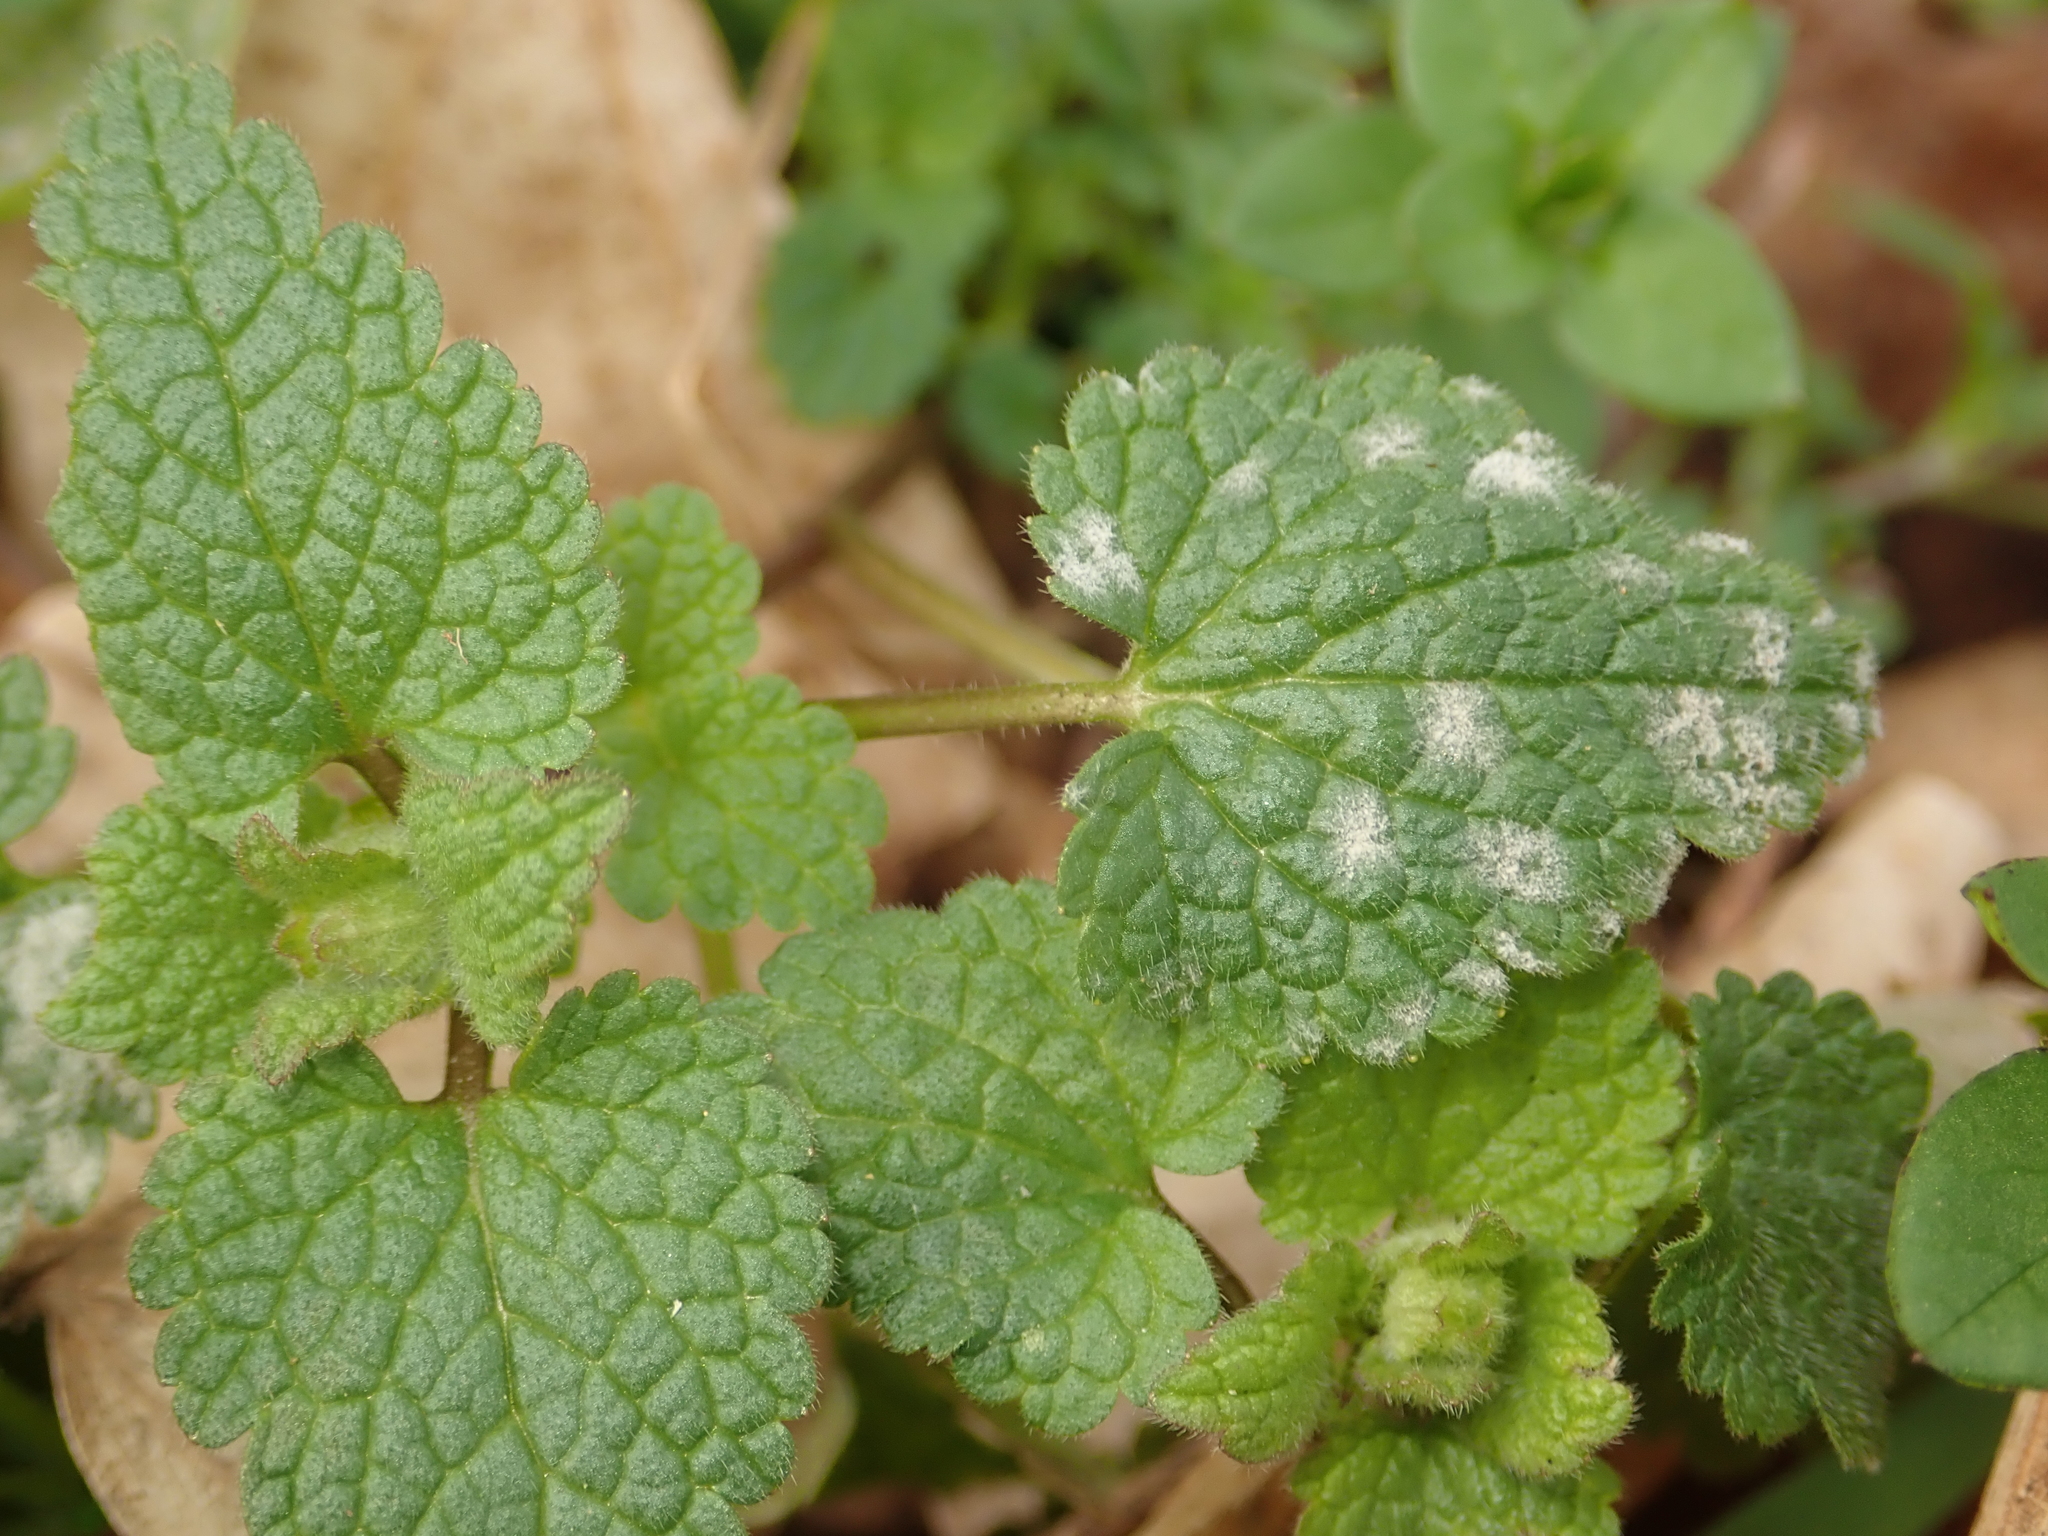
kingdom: Fungi
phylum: Ascomycota
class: Leotiomycetes
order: Helotiales
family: Erysiphaceae
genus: Neoerysiphe
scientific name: Neoerysiphe galeopsidis
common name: Mint mildew
